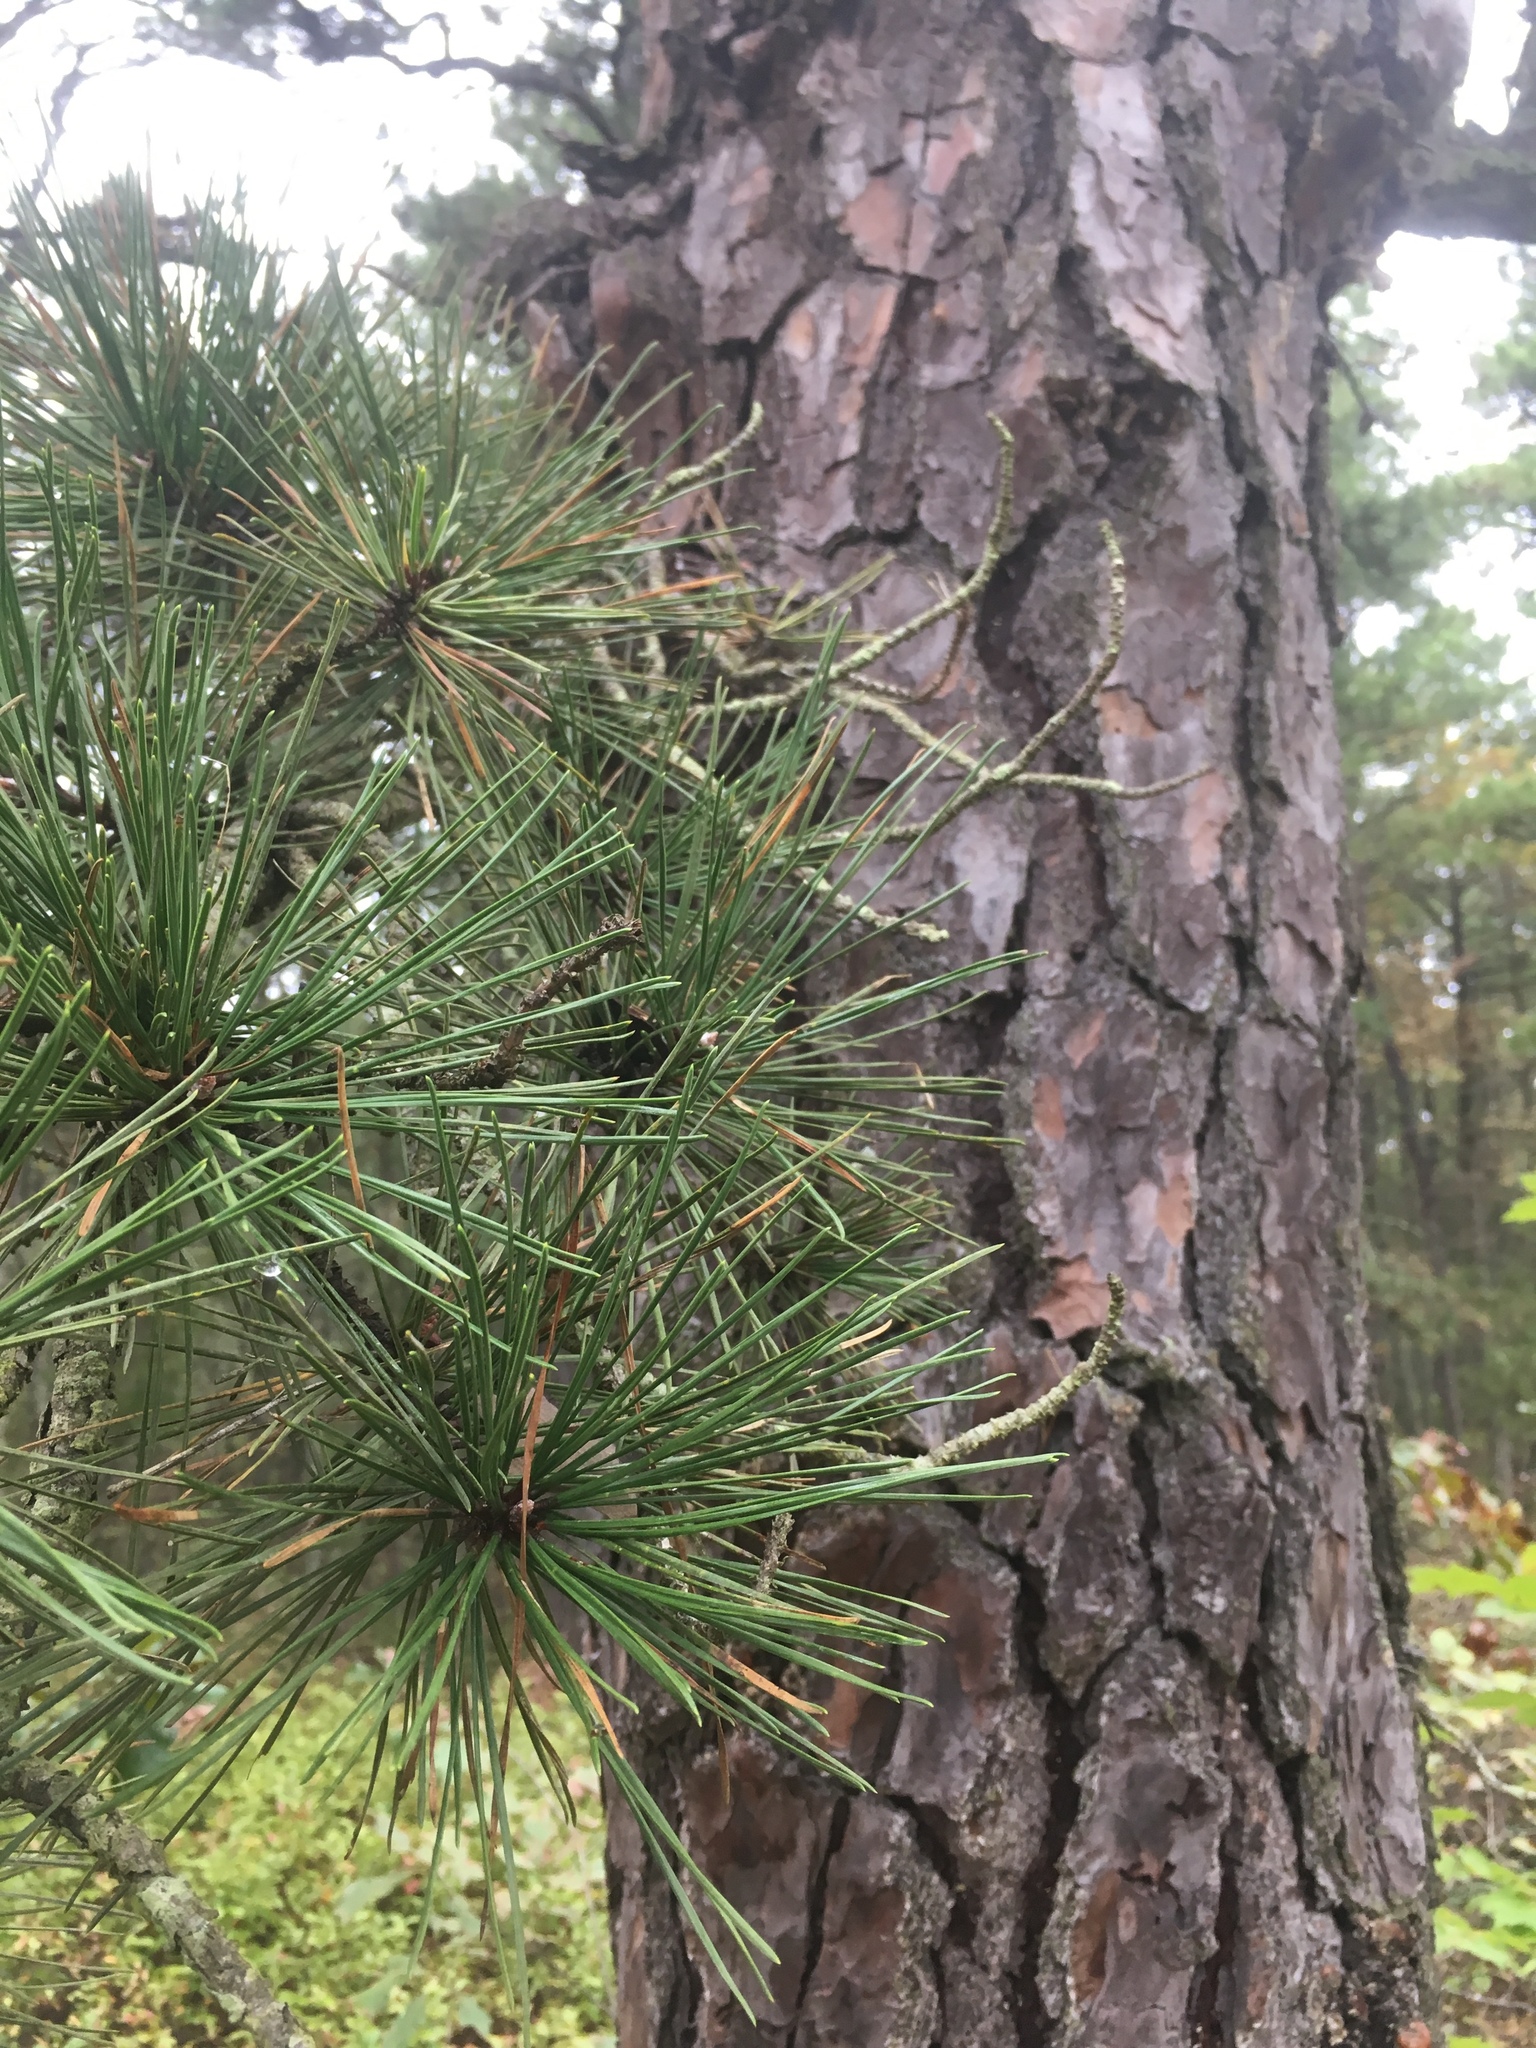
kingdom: Plantae
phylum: Tracheophyta
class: Pinopsida
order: Pinales
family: Pinaceae
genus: Pinus
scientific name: Pinus rigida
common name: Pitch pine
